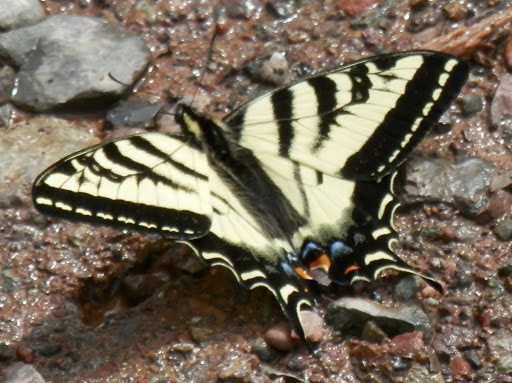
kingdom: Animalia
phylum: Arthropoda
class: Insecta
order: Lepidoptera
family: Papilionidae
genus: Papilio
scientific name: Papilio rutulus
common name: Western tiger swallowtail
